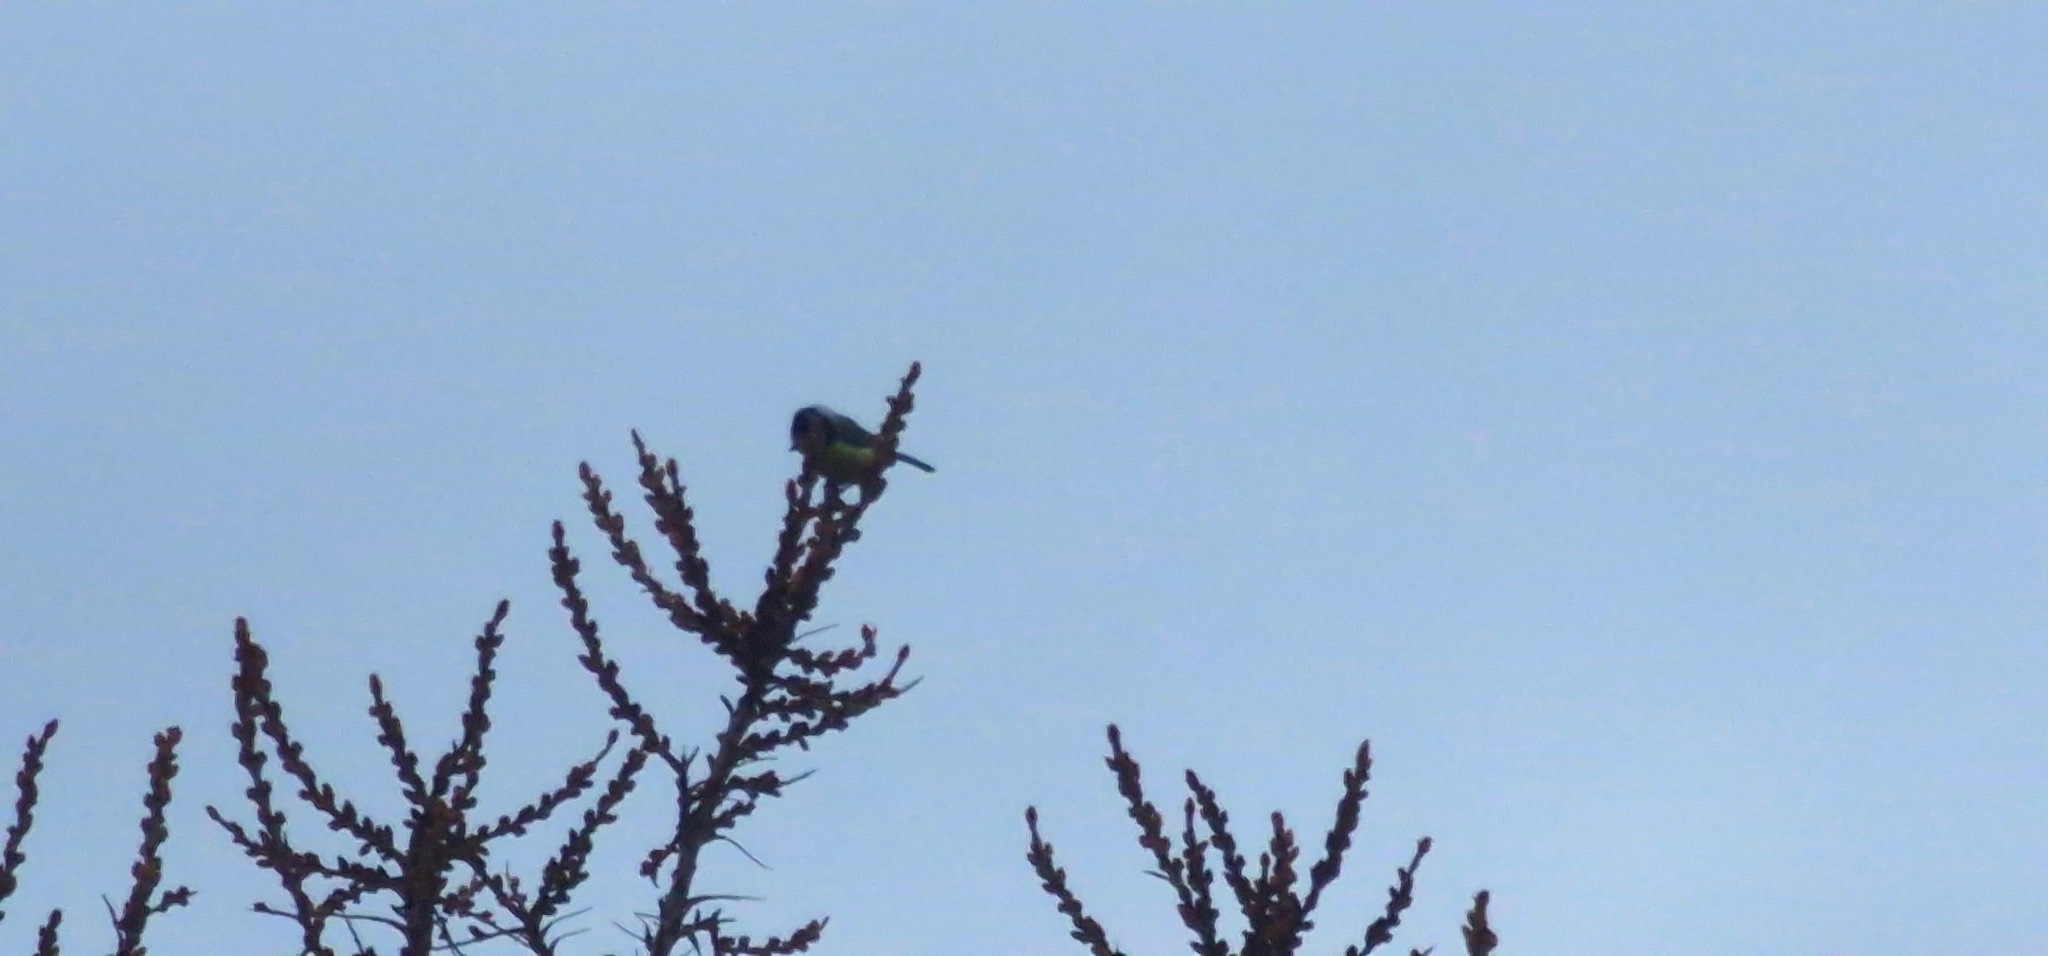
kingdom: Animalia
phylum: Chordata
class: Aves
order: Passeriformes
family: Paridae
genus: Cyanistes
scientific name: Cyanistes caeruleus
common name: Eurasian blue tit
